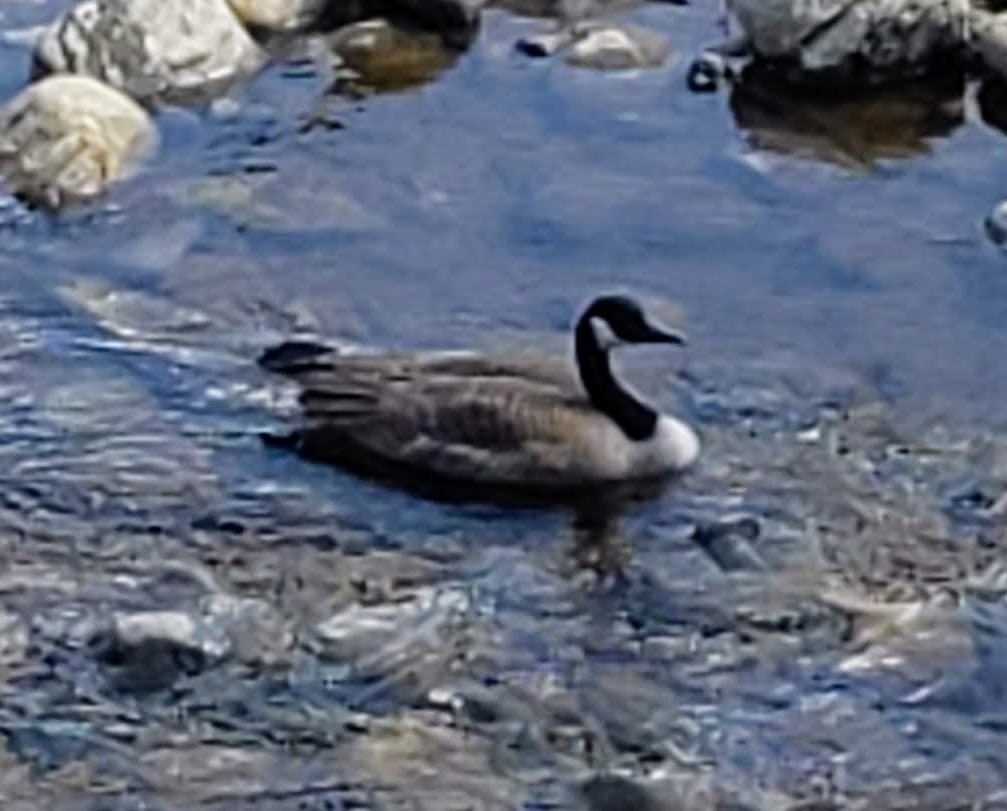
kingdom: Animalia
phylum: Chordata
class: Aves
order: Anseriformes
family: Anatidae
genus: Branta
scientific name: Branta canadensis
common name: Canada goose
